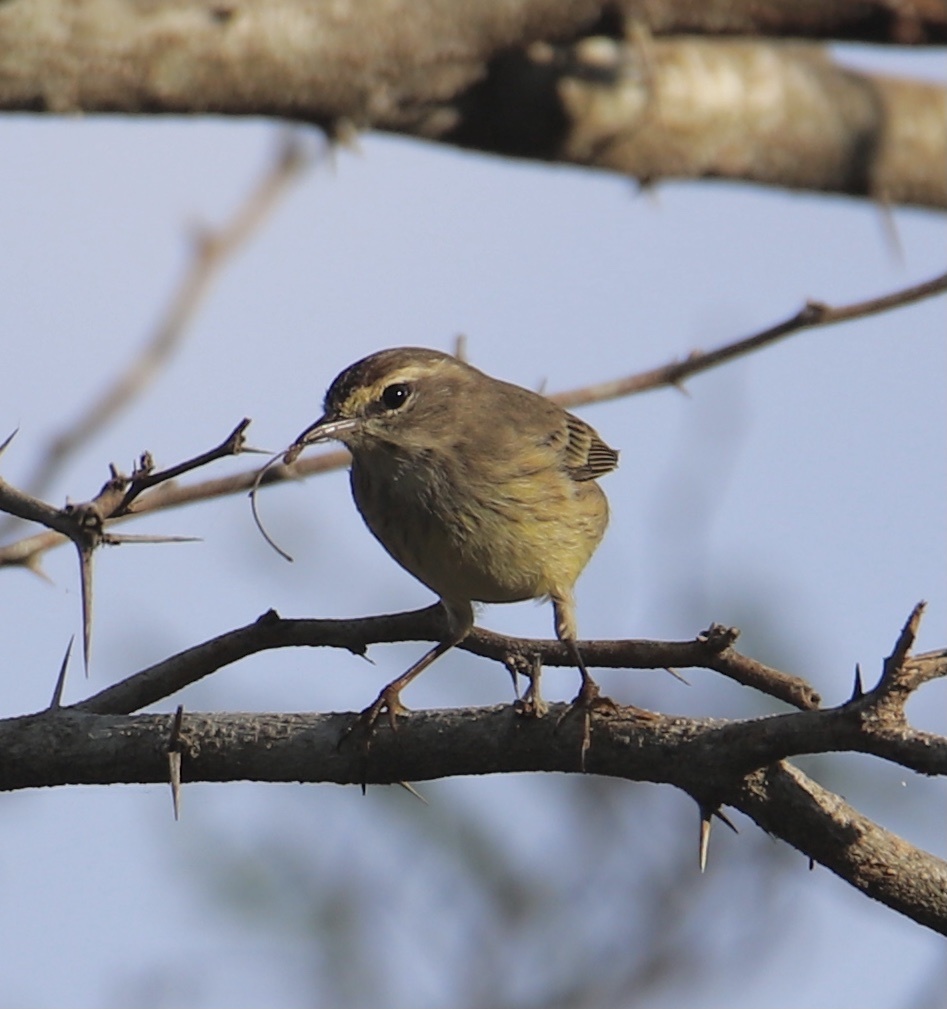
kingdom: Animalia
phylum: Chordata
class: Aves
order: Passeriformes
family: Parulidae
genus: Setophaga
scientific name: Setophaga palmarum
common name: Palm warbler
